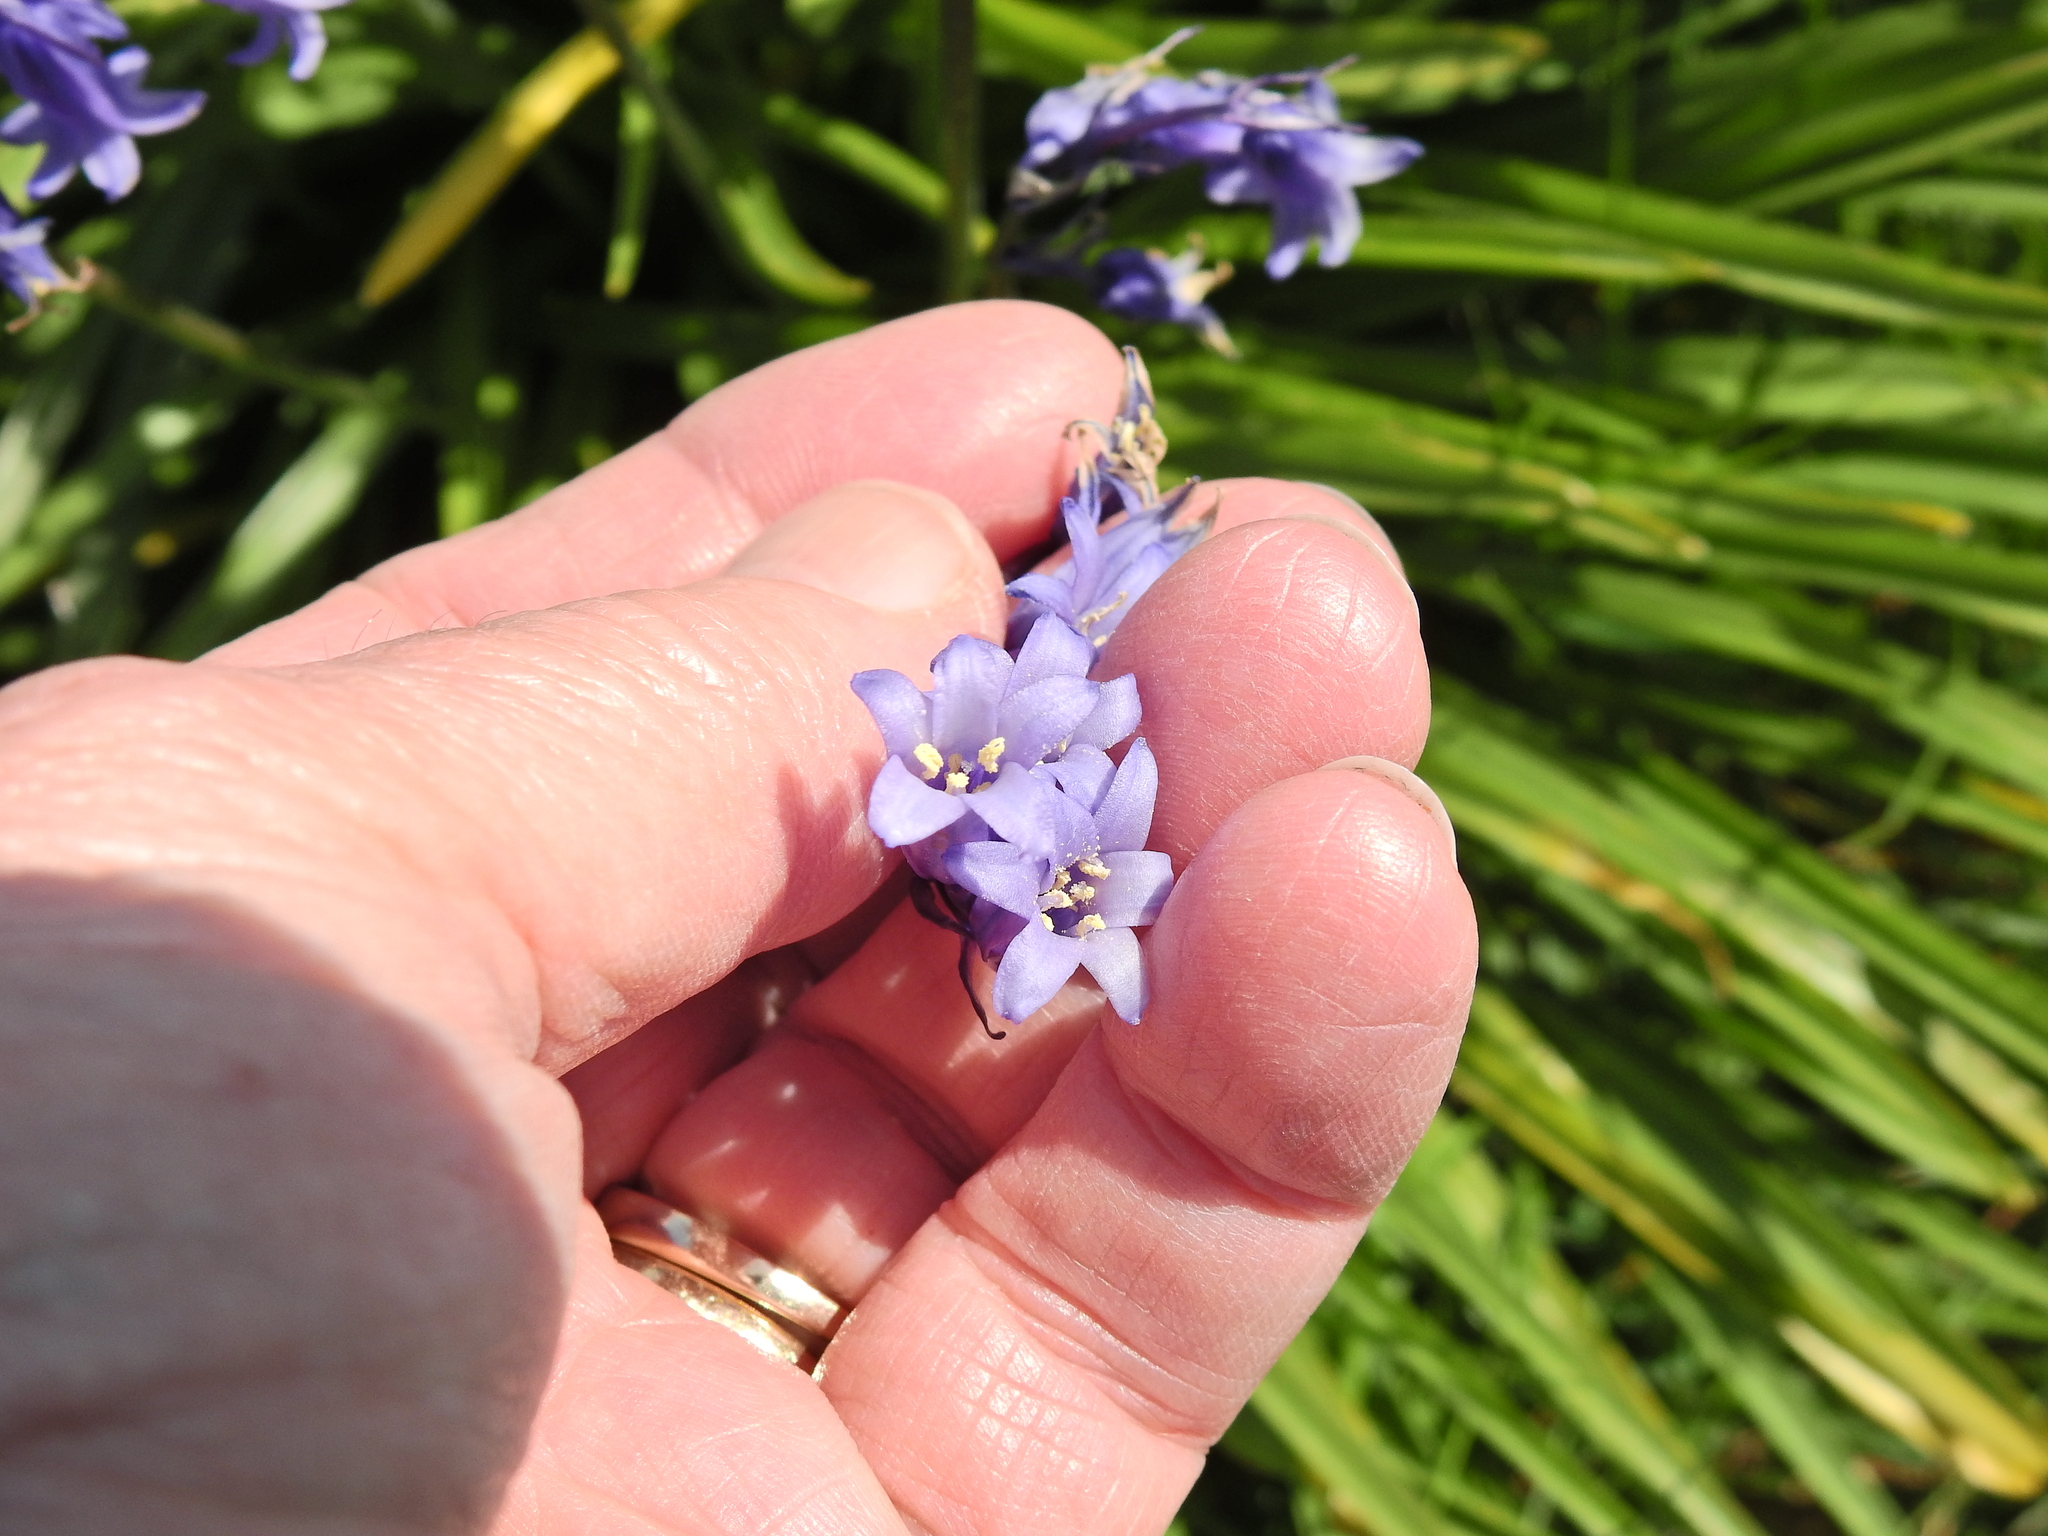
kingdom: Plantae
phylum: Tracheophyta
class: Liliopsida
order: Asparagales
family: Asparagaceae
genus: Hyacinthoides
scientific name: Hyacinthoides non-scripta
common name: Bluebell
